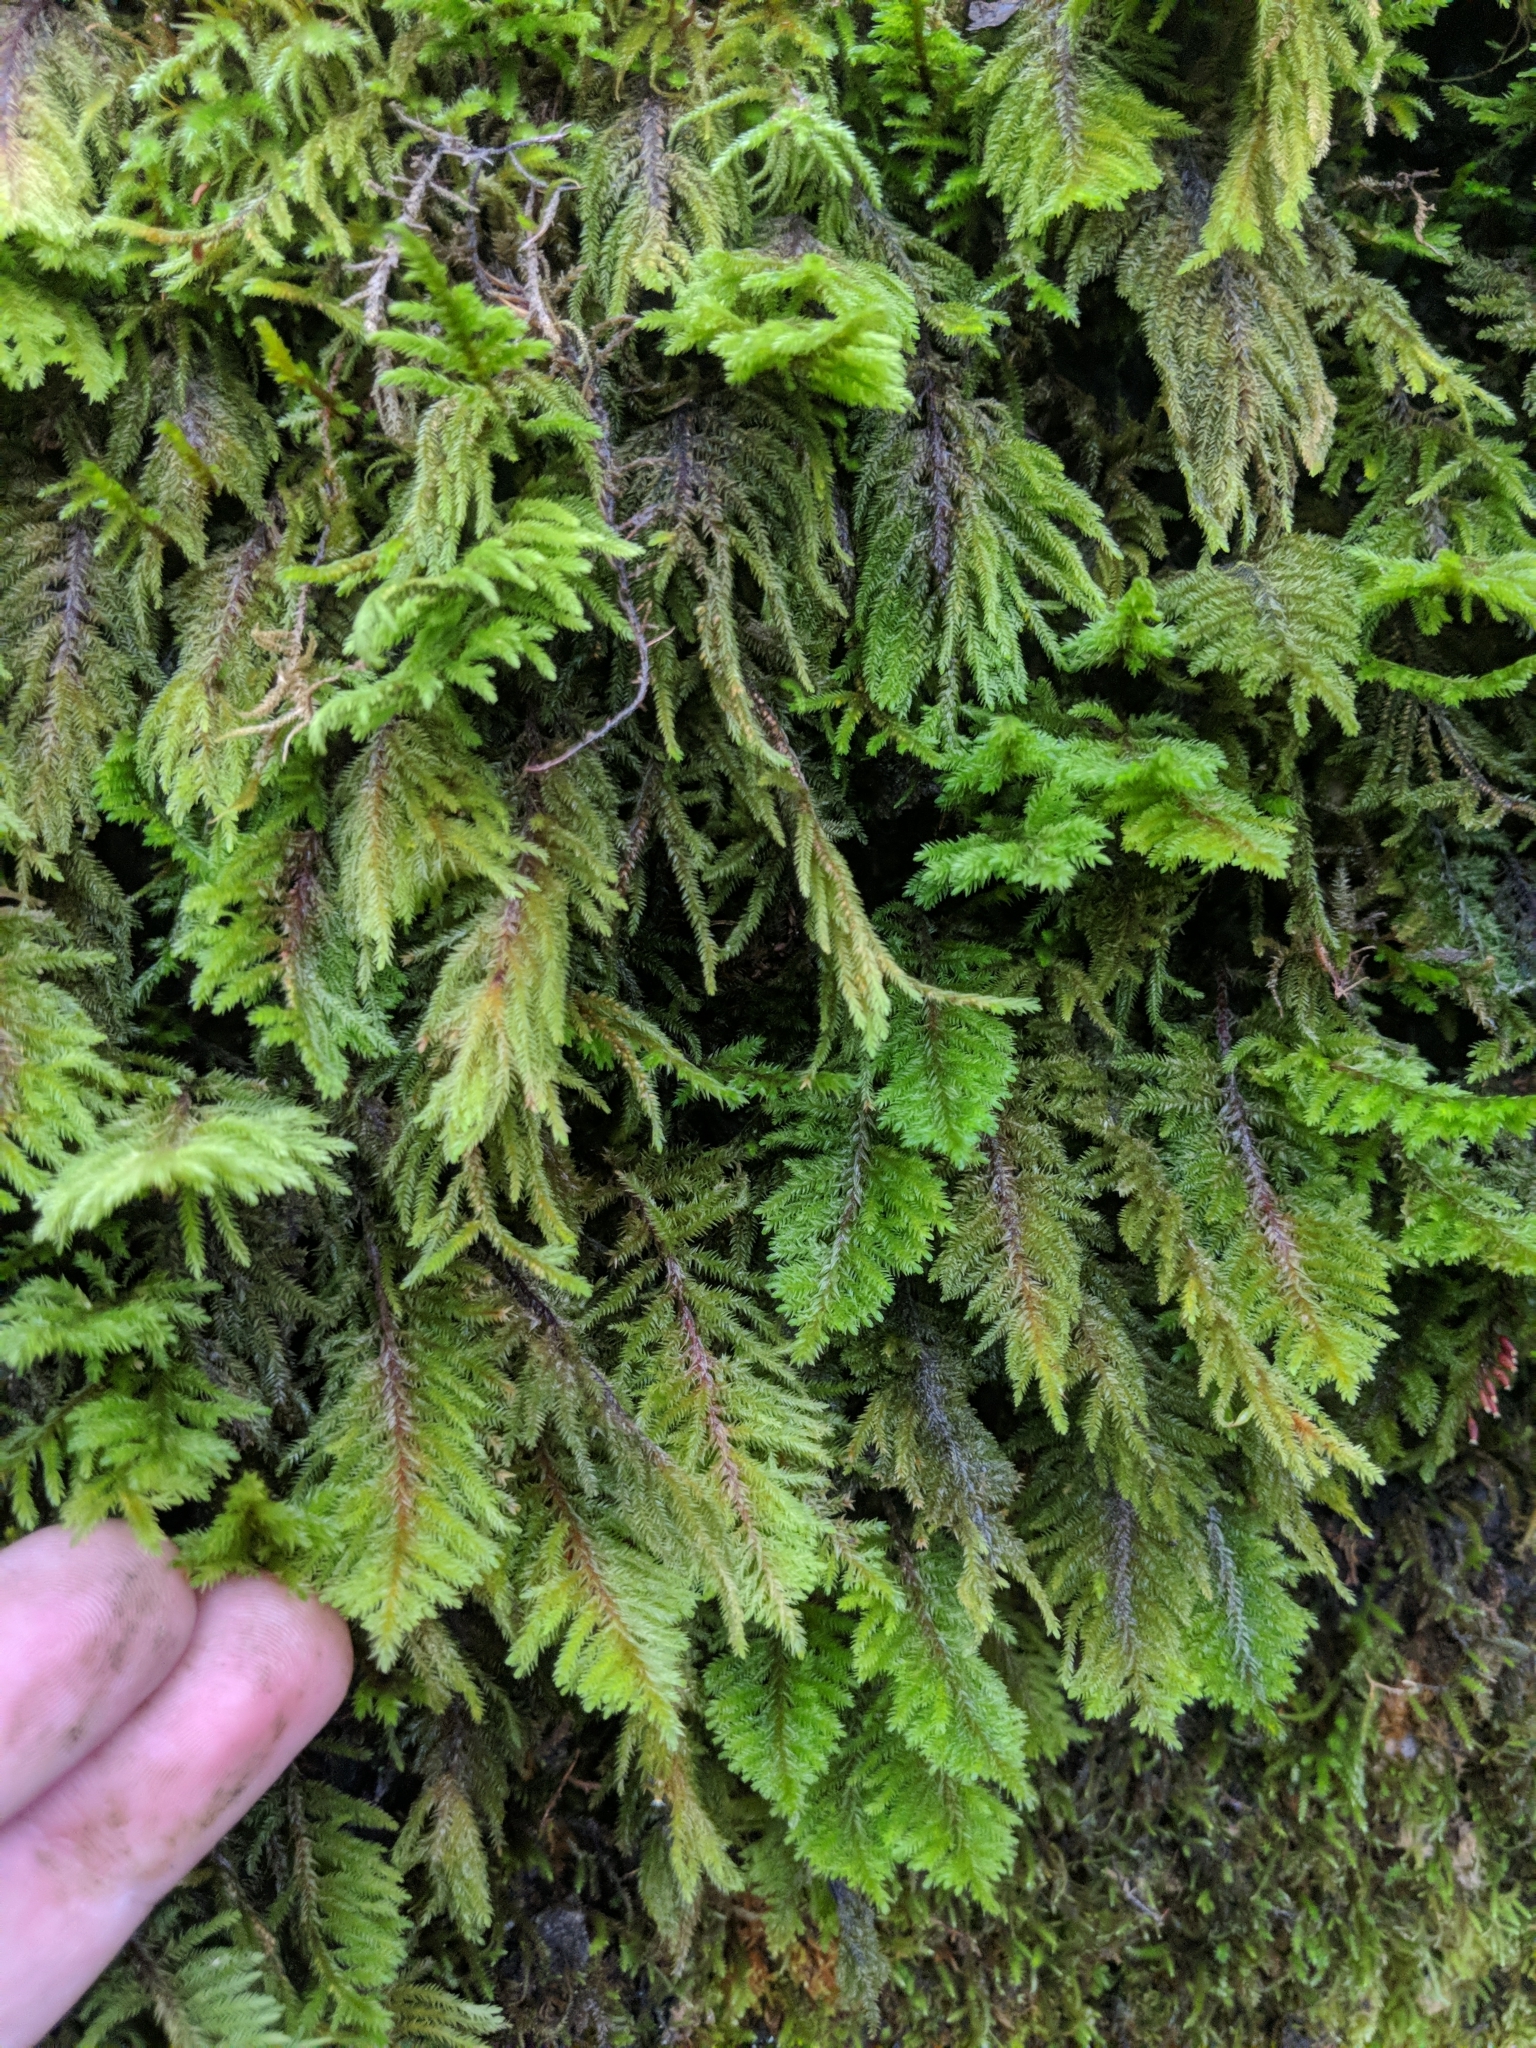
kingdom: Plantae
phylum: Bryophyta
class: Bryopsida
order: Hypnales
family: Cryphaeaceae
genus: Dendroalsia
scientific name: Dendroalsia abietina
